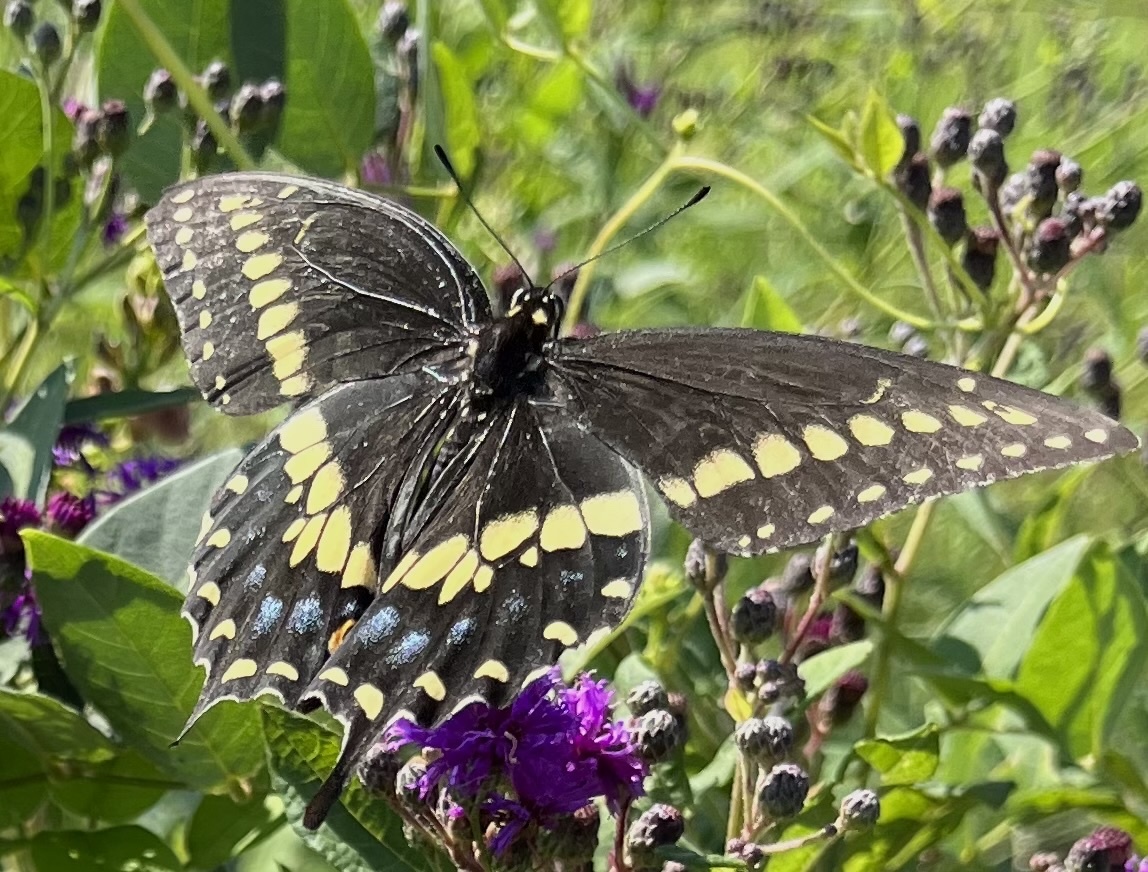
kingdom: Animalia
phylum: Arthropoda
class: Insecta
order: Lepidoptera
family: Papilionidae
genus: Papilio
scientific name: Papilio polyxenes
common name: Black swallowtail
